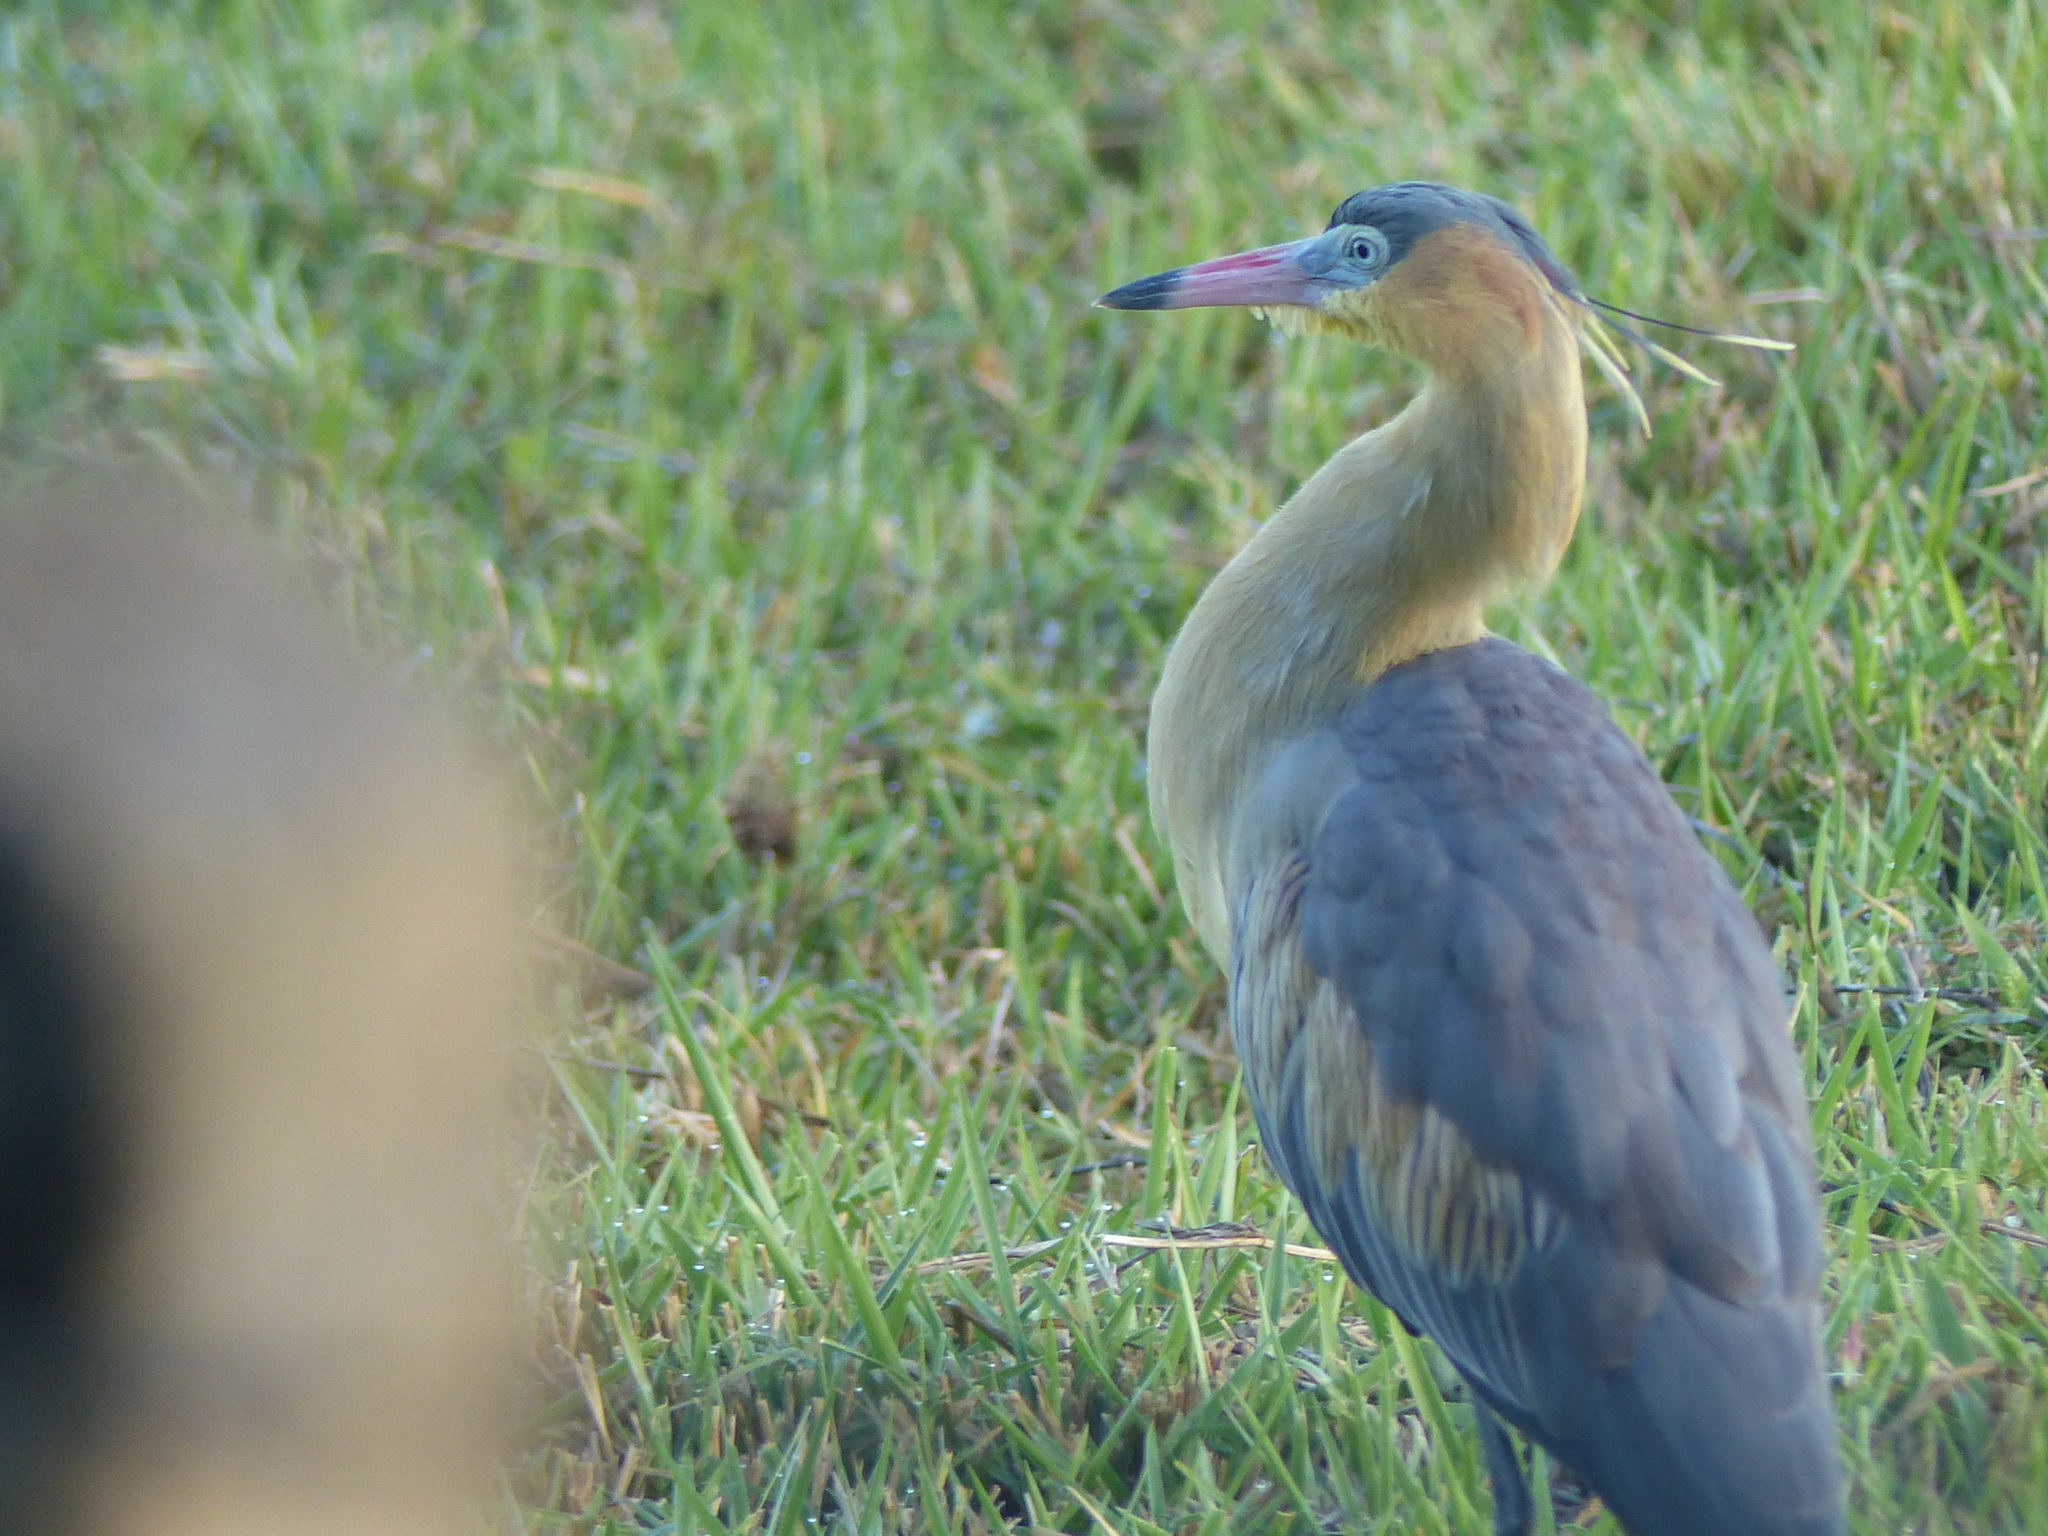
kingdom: Animalia
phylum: Chordata
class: Aves
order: Pelecaniformes
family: Ardeidae
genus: Syrigma
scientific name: Syrigma sibilatrix
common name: Whistling heron
